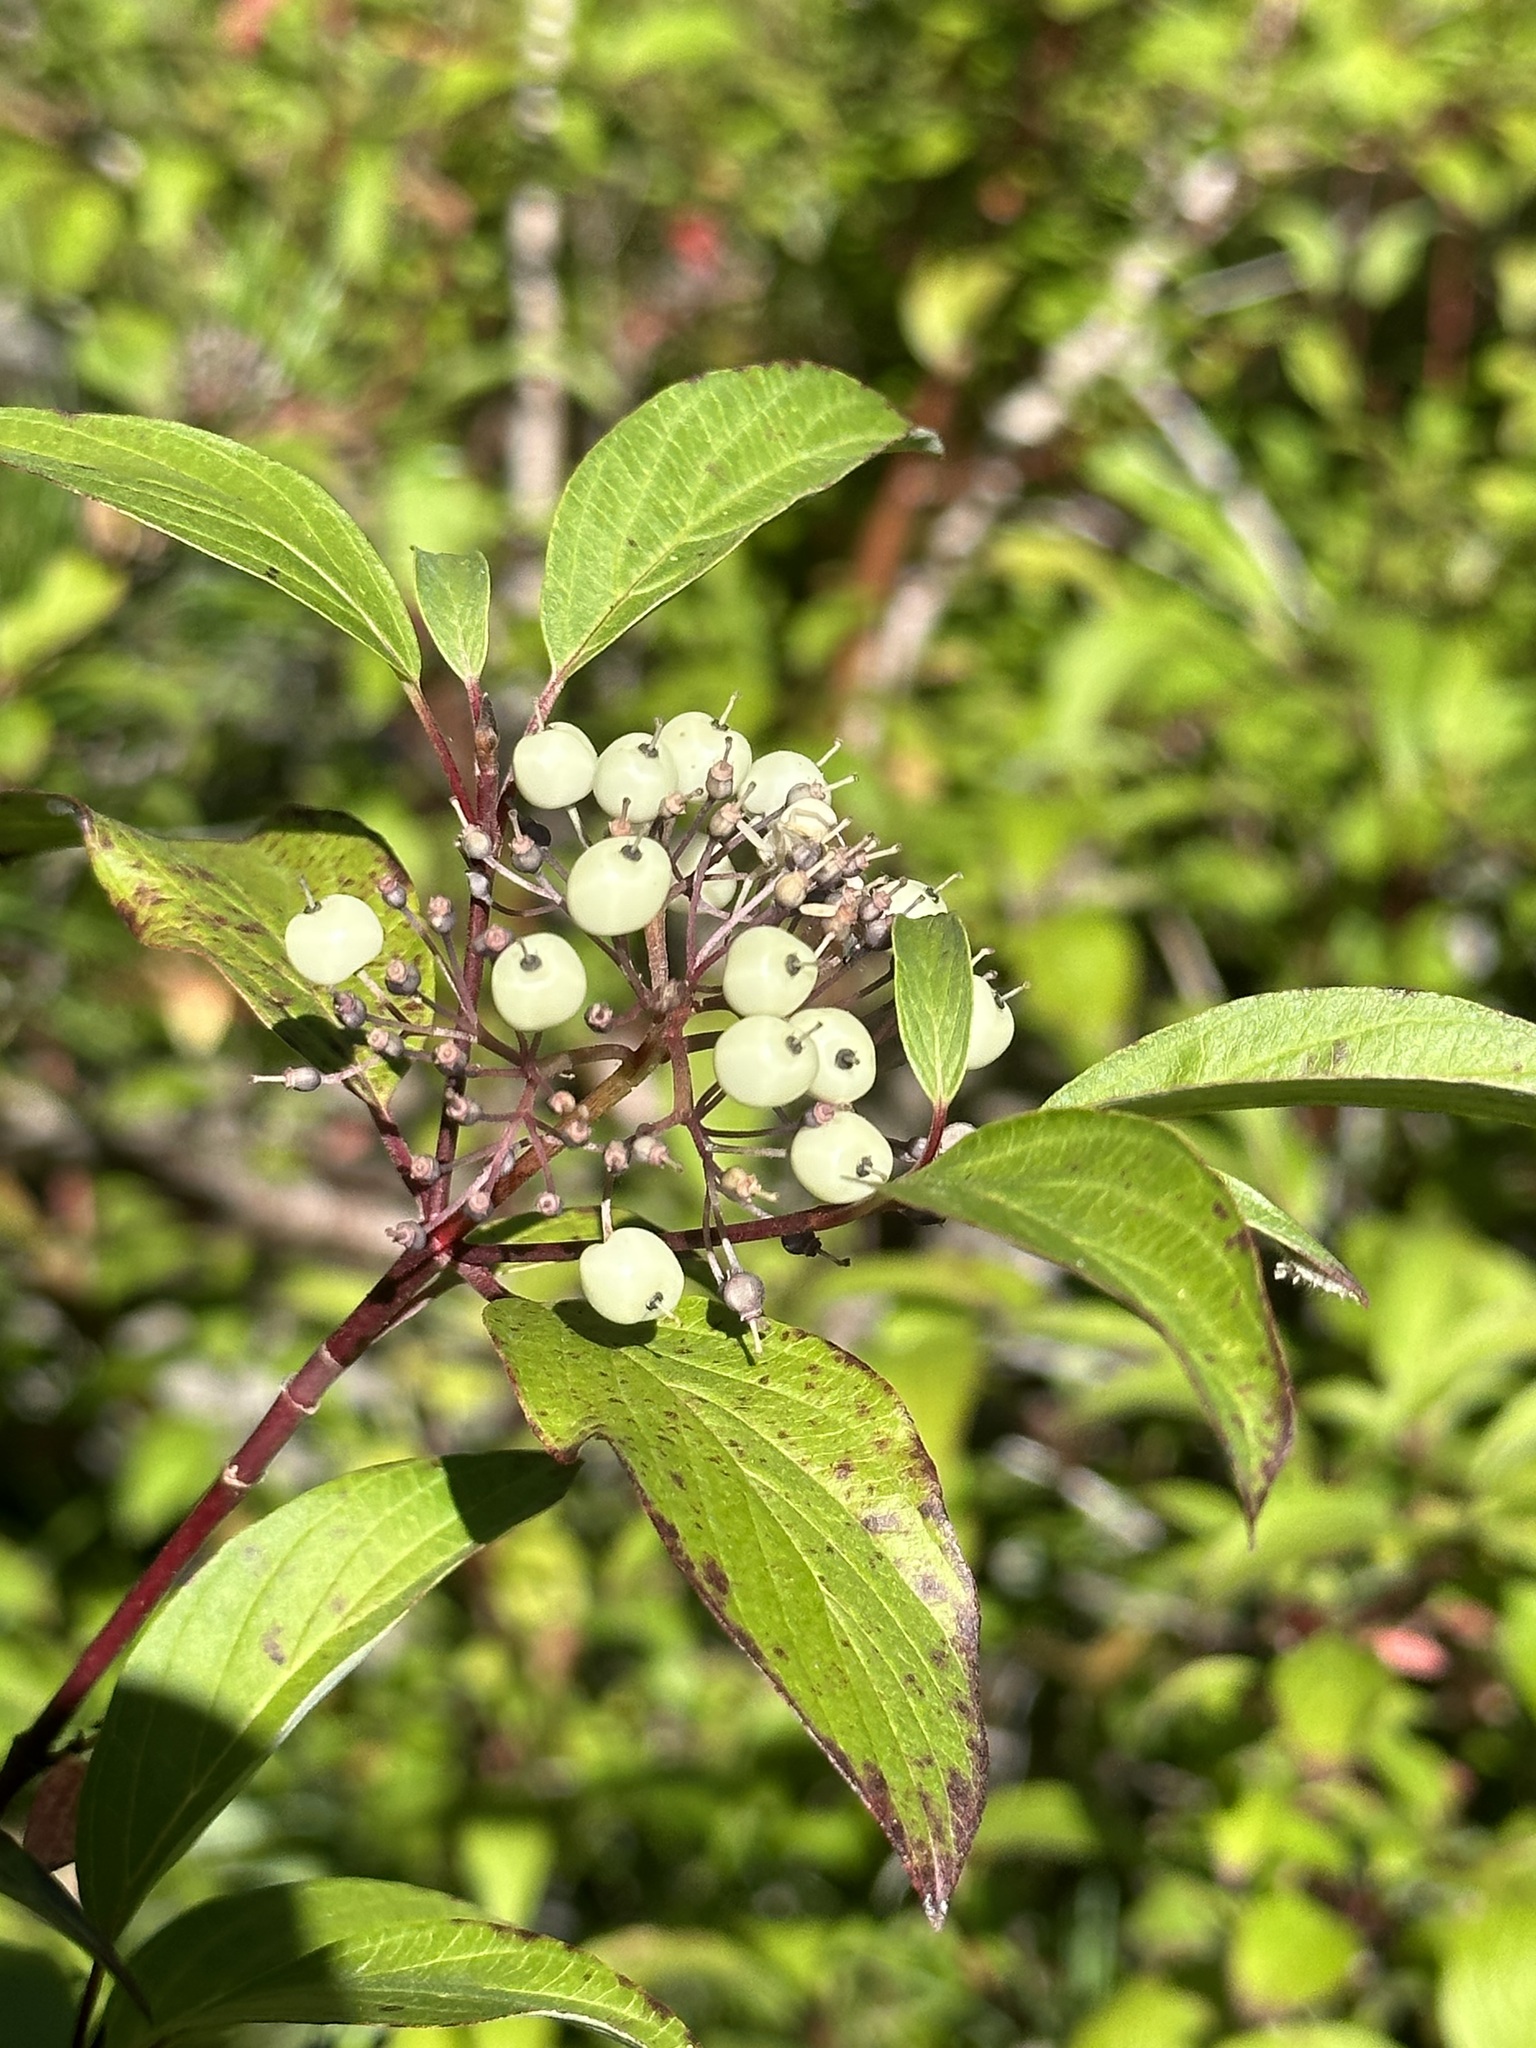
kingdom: Plantae
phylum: Tracheophyta
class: Magnoliopsida
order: Cornales
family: Cornaceae
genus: Cornus
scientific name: Cornus sericea
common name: Red-osier dogwood
